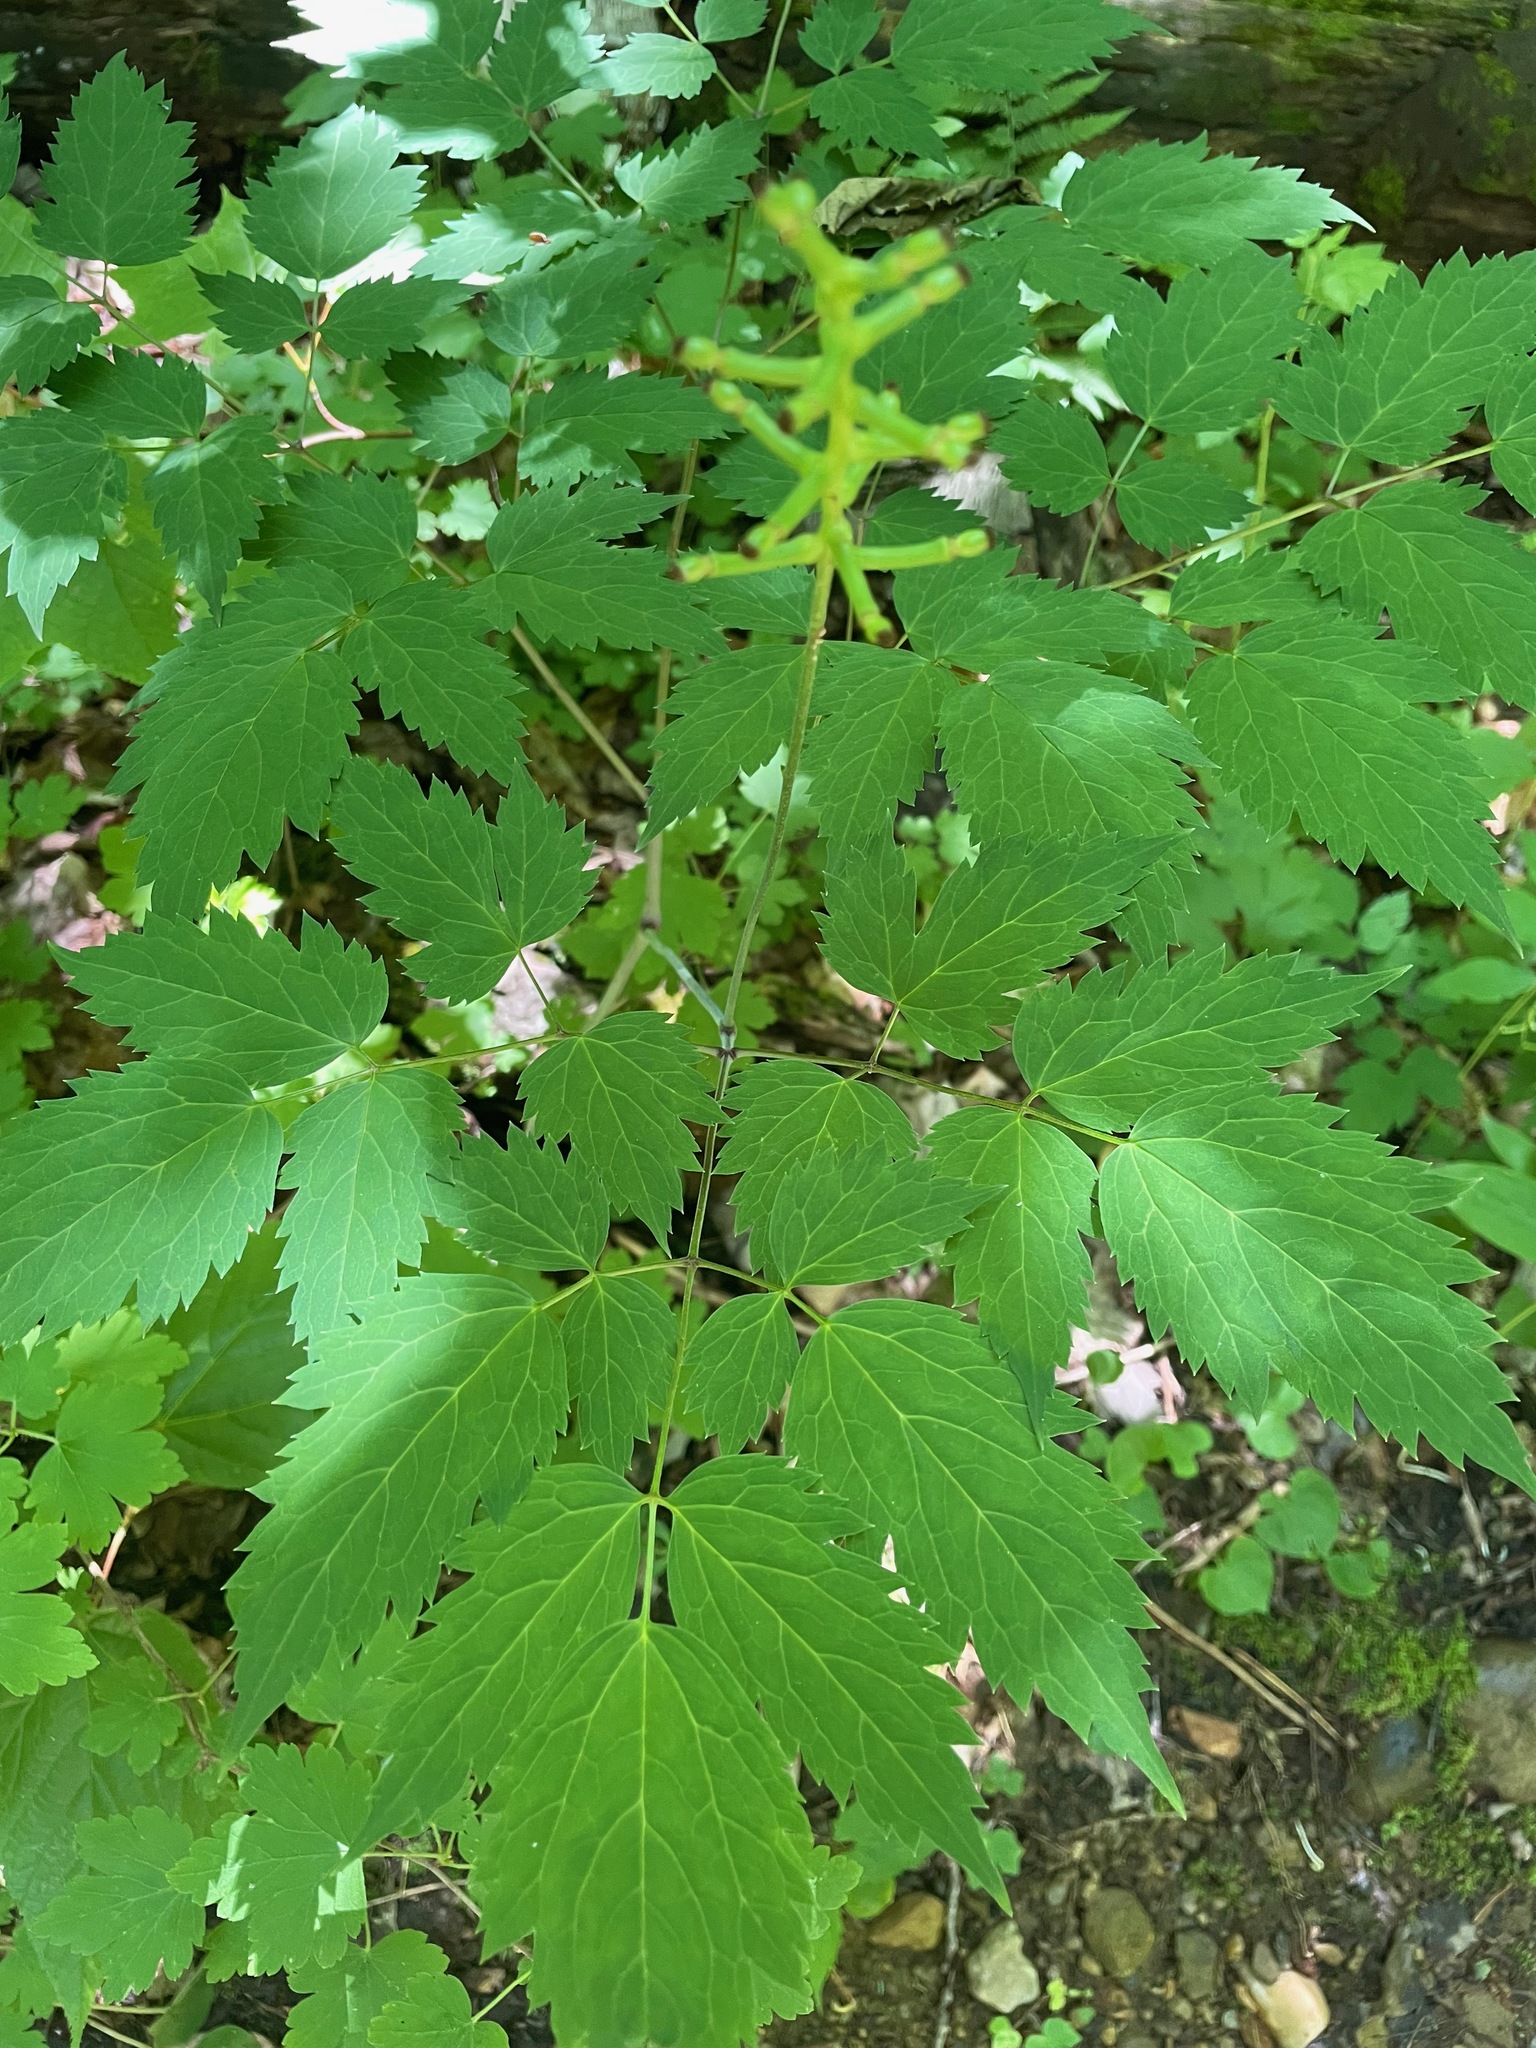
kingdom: Plantae
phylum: Tracheophyta
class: Magnoliopsida
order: Ranunculales
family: Ranunculaceae
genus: Actaea
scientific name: Actaea pachypoda
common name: Doll's-eyes
